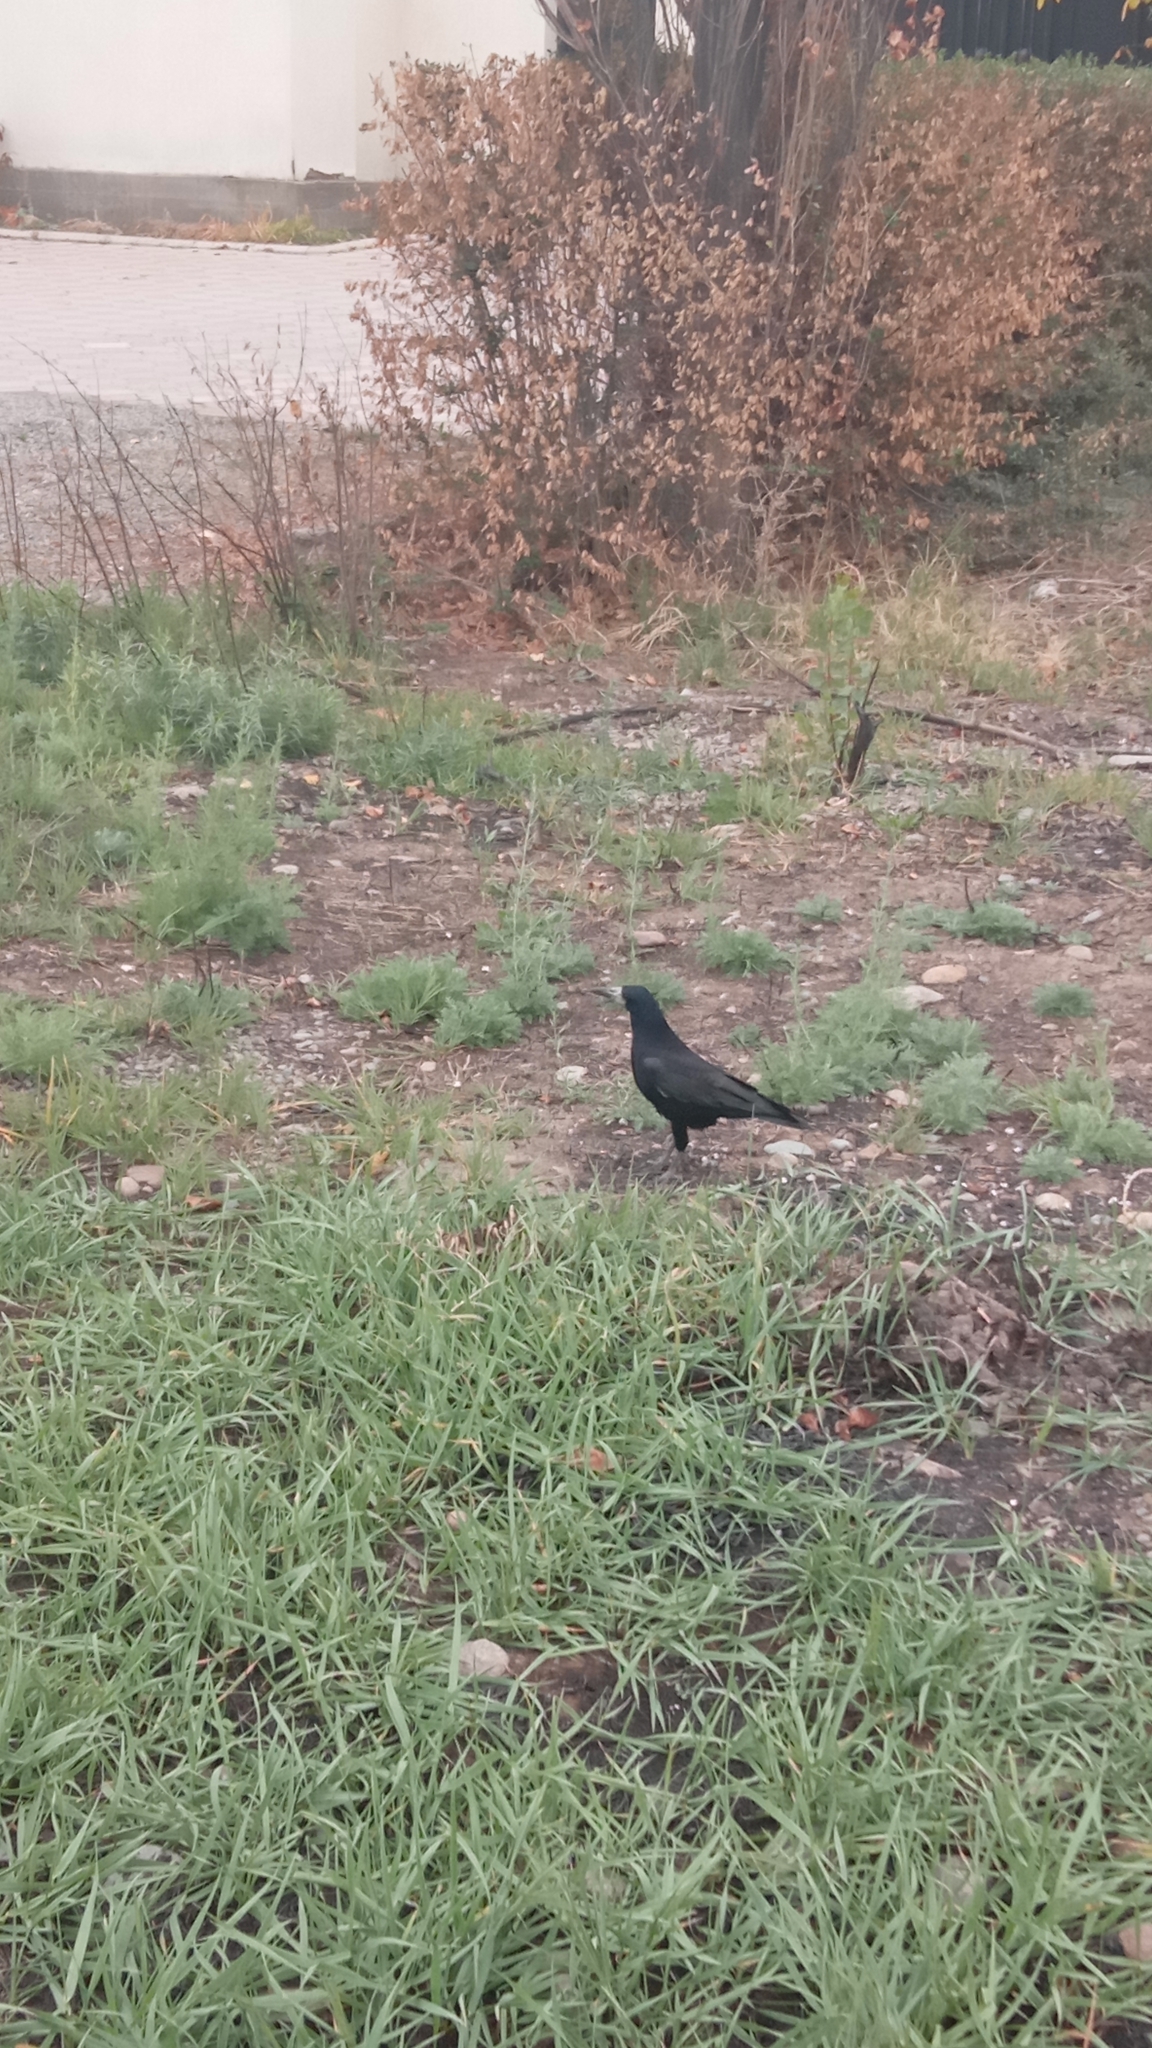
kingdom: Animalia
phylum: Chordata
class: Aves
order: Passeriformes
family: Corvidae
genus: Corvus
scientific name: Corvus frugilegus
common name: Rook
